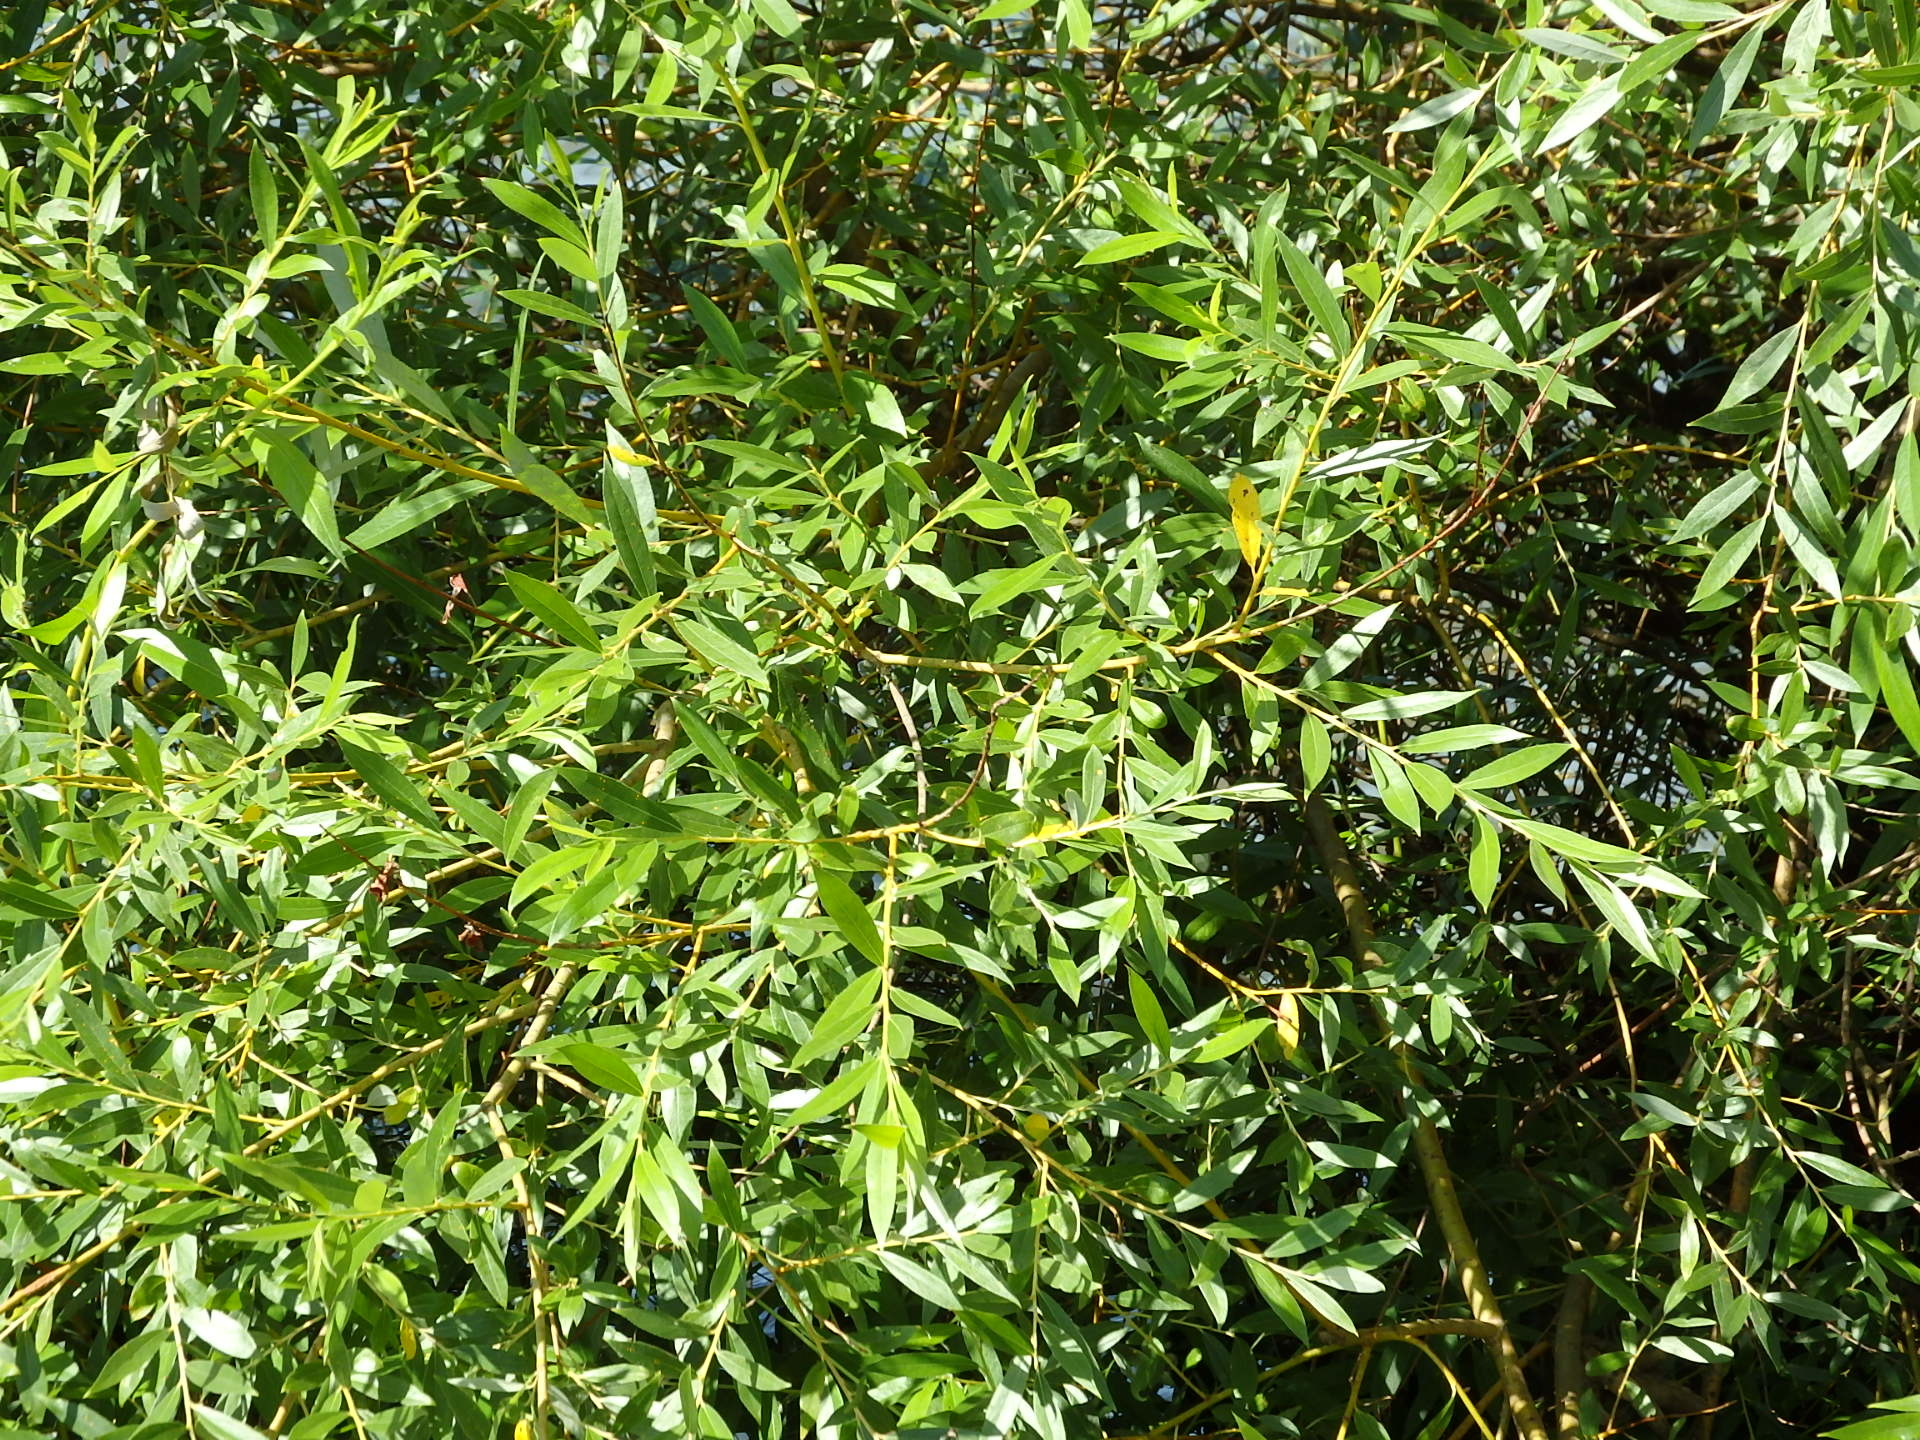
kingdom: Plantae
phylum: Tracheophyta
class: Magnoliopsida
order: Malpighiales
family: Salicaceae
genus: Salix
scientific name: Salix alba
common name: White willow
